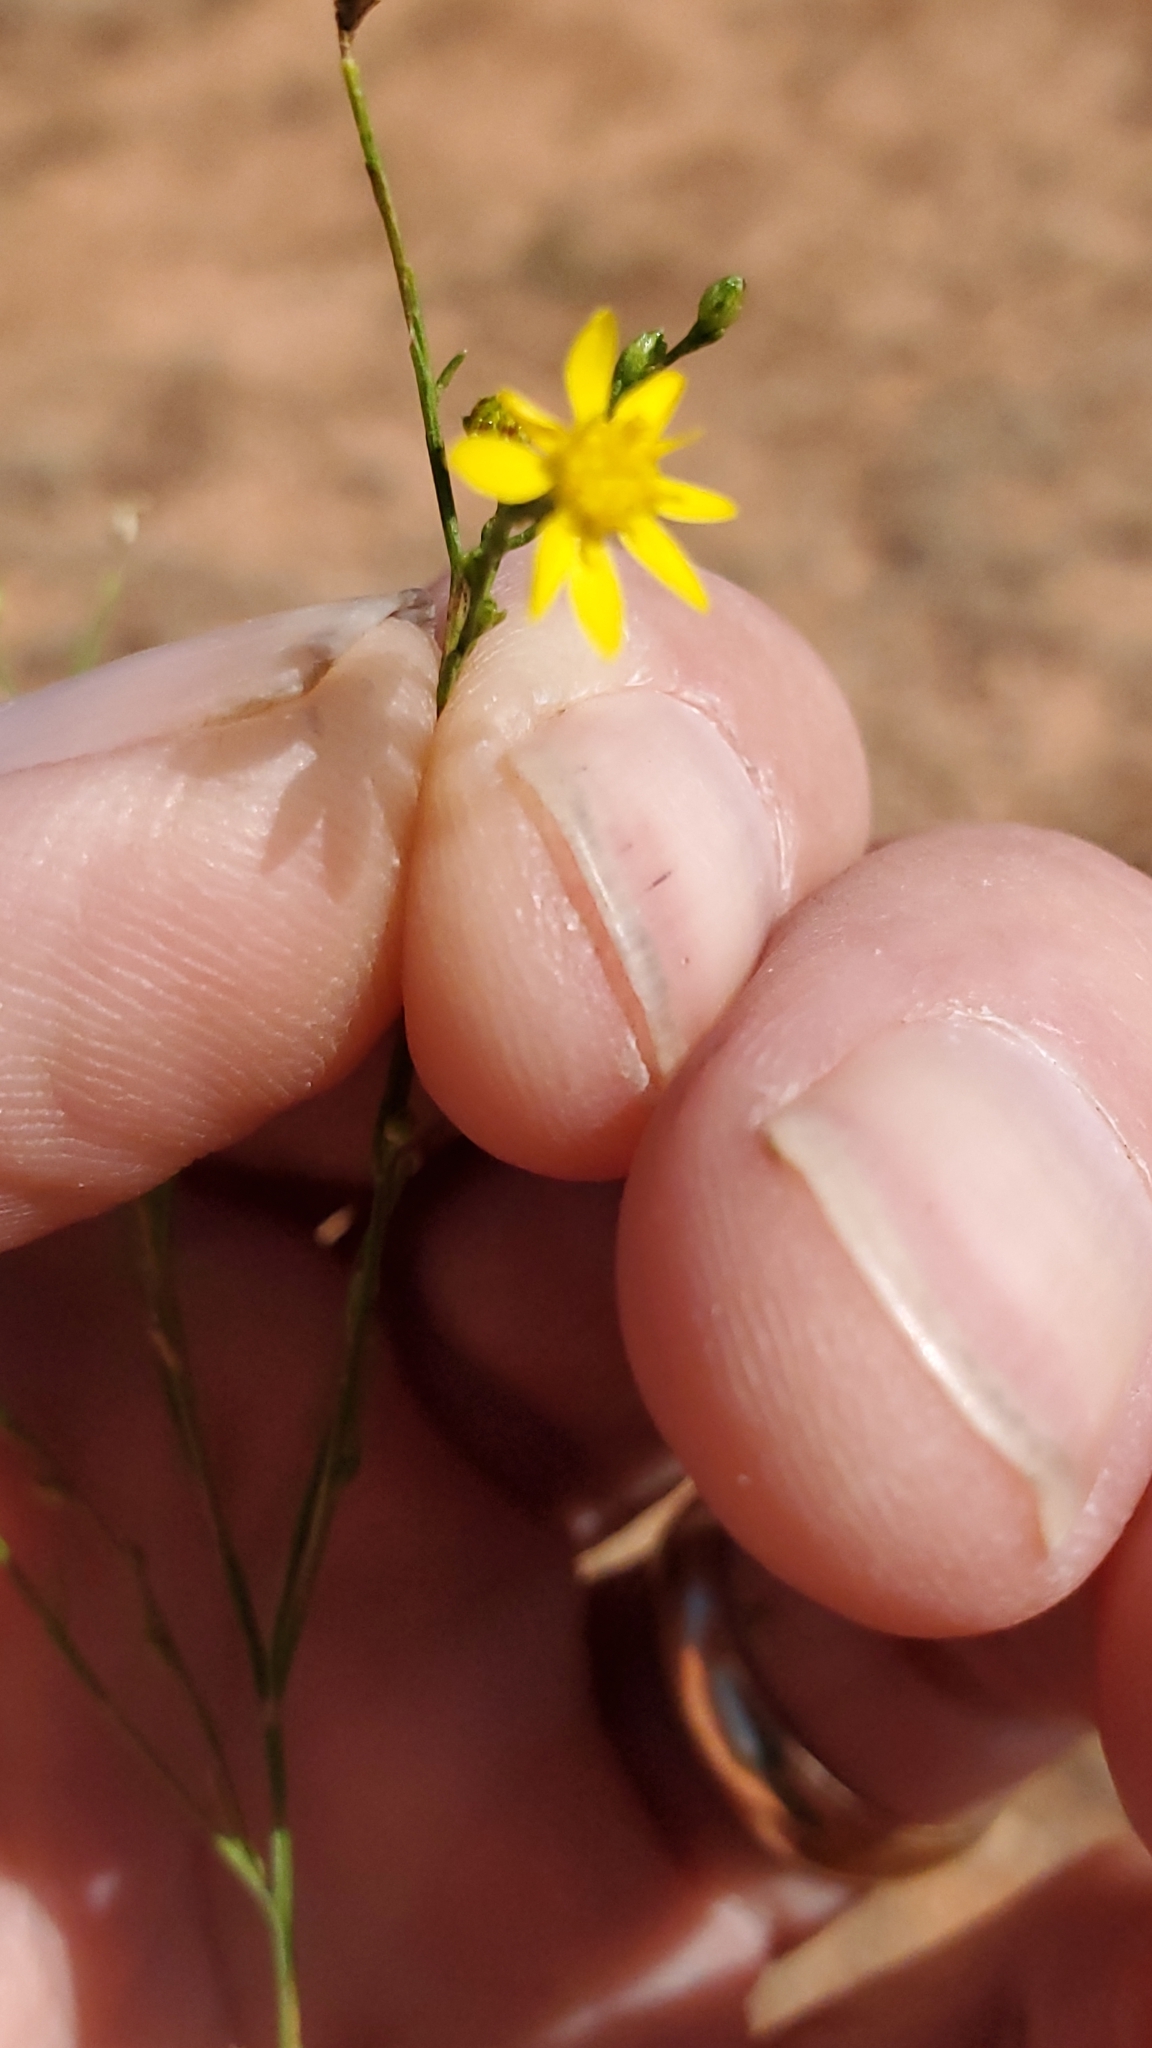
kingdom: Plantae
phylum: Tracheophyta
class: Magnoliopsida
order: Asterales
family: Asteraceae
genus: Gutierrezia
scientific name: Gutierrezia texana
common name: Texas snakeweed
